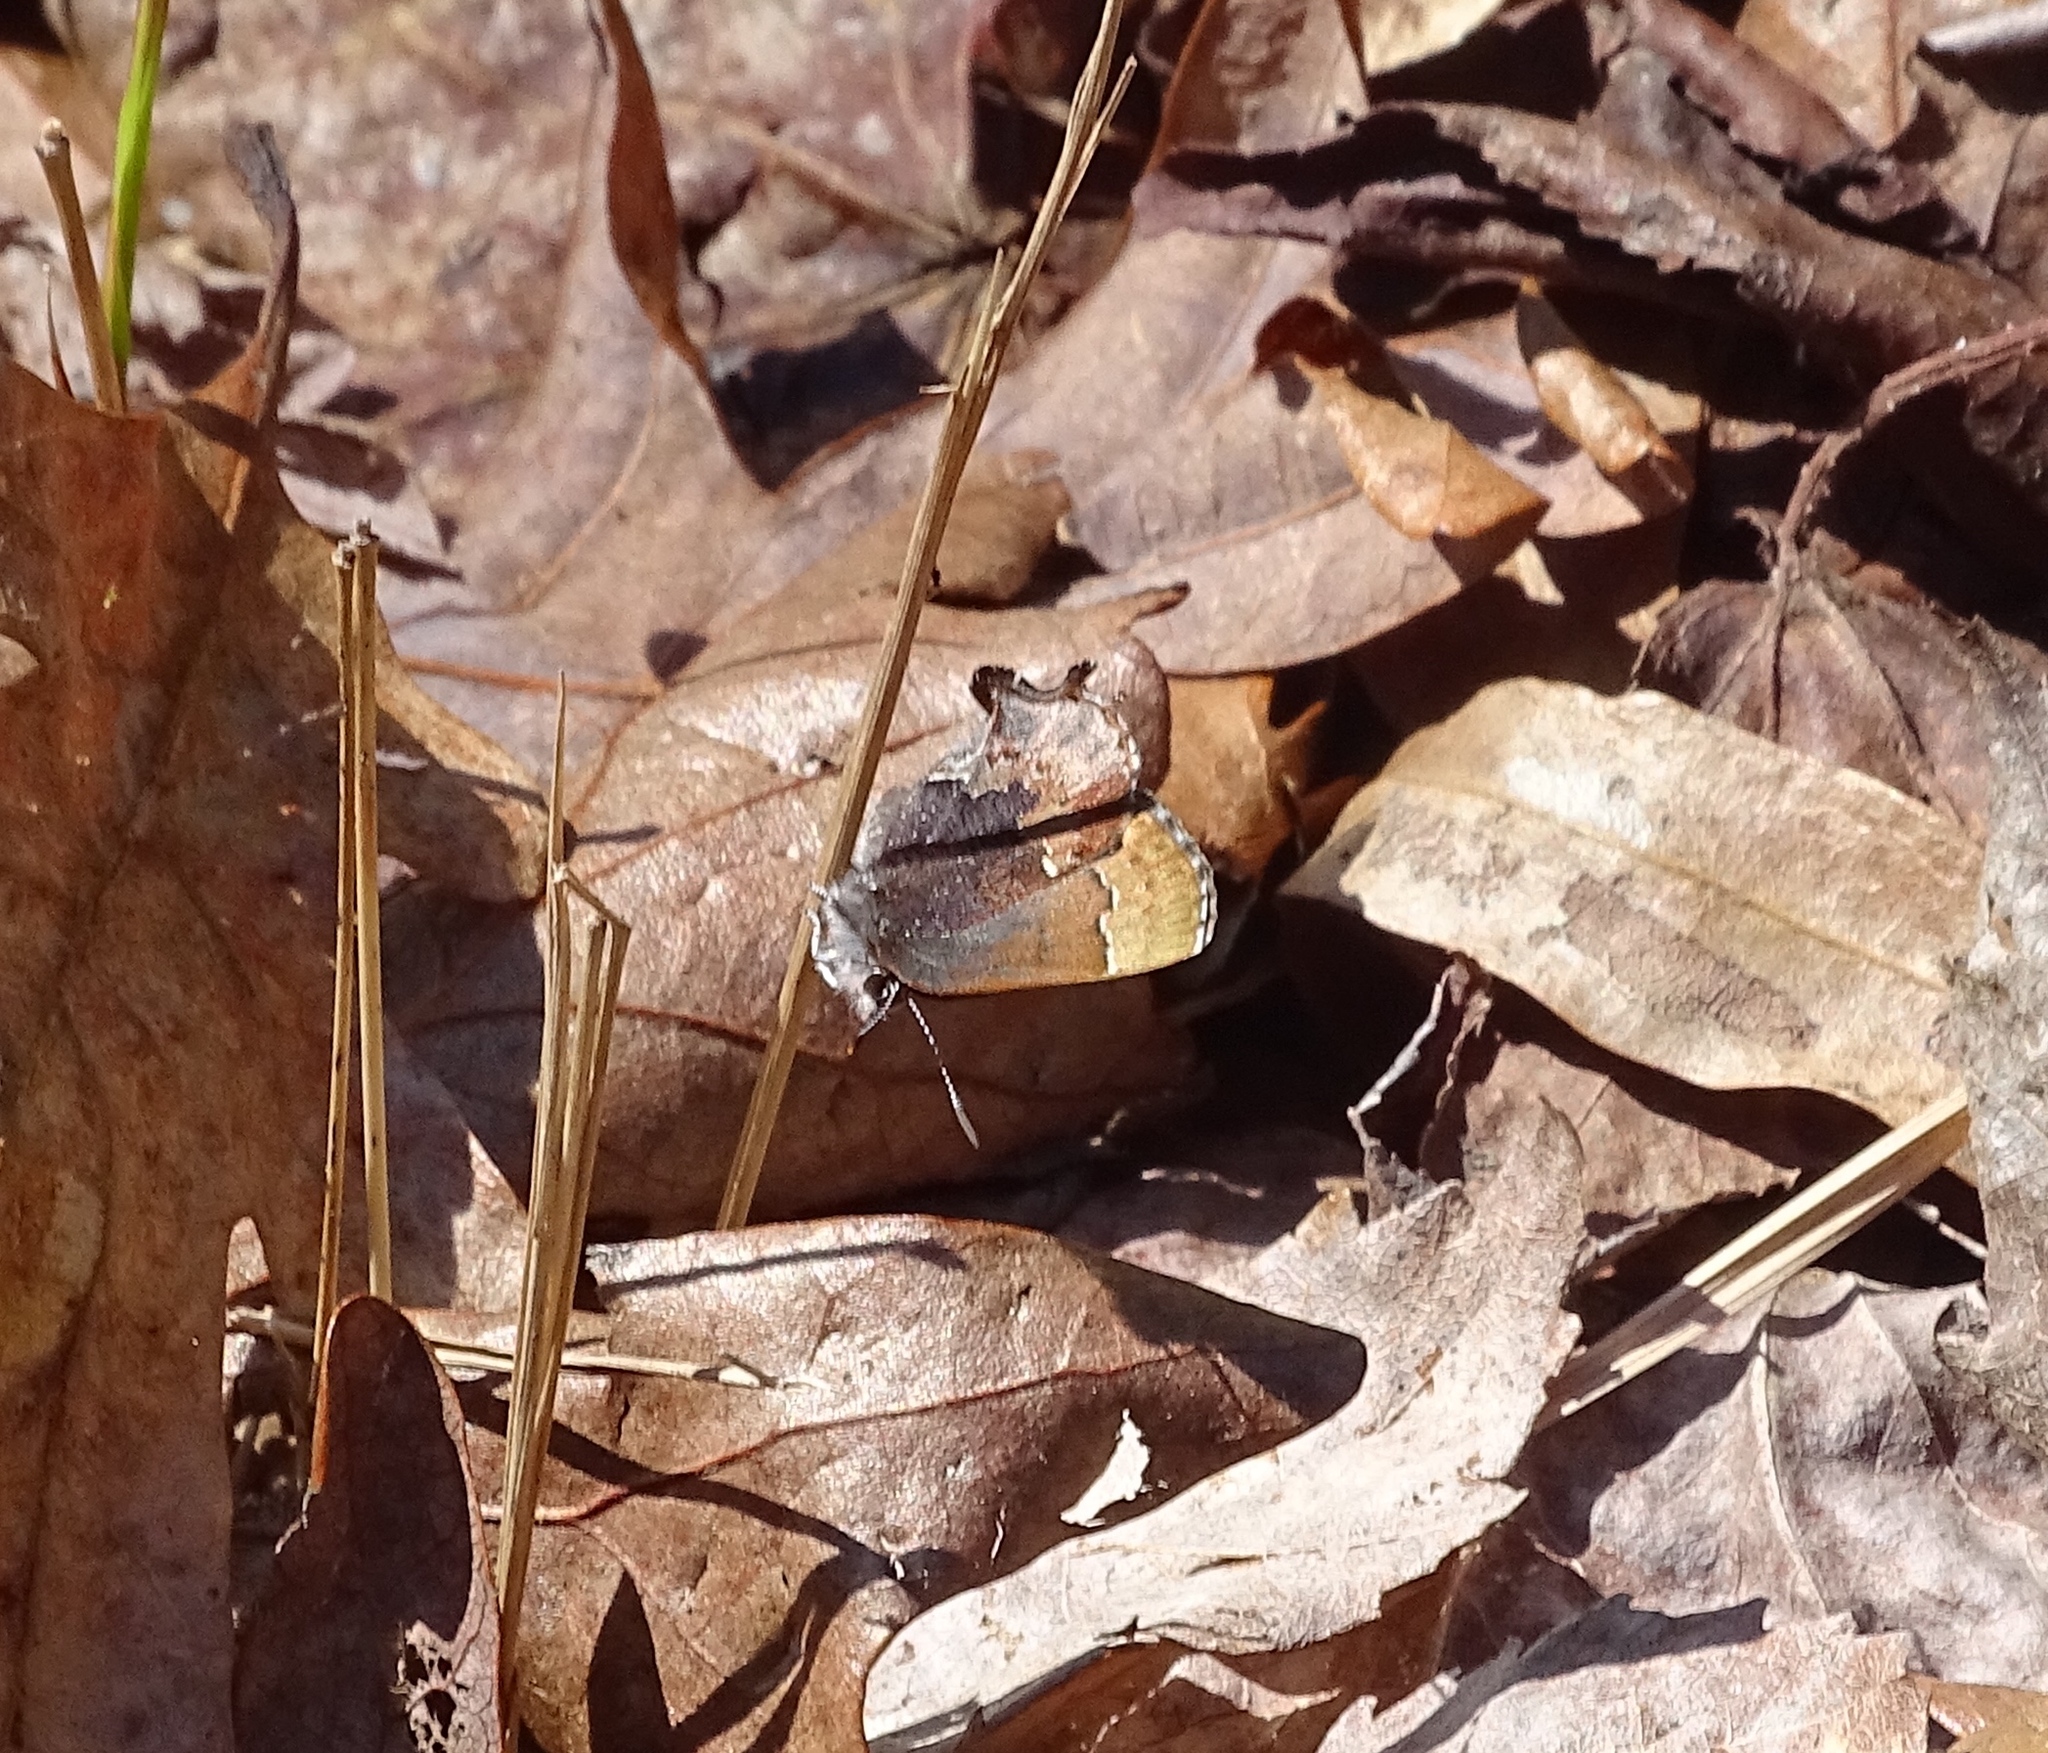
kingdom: Animalia
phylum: Arthropoda
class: Insecta
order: Lepidoptera
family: Lycaenidae
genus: Incisalia
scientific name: Incisalia henrici
